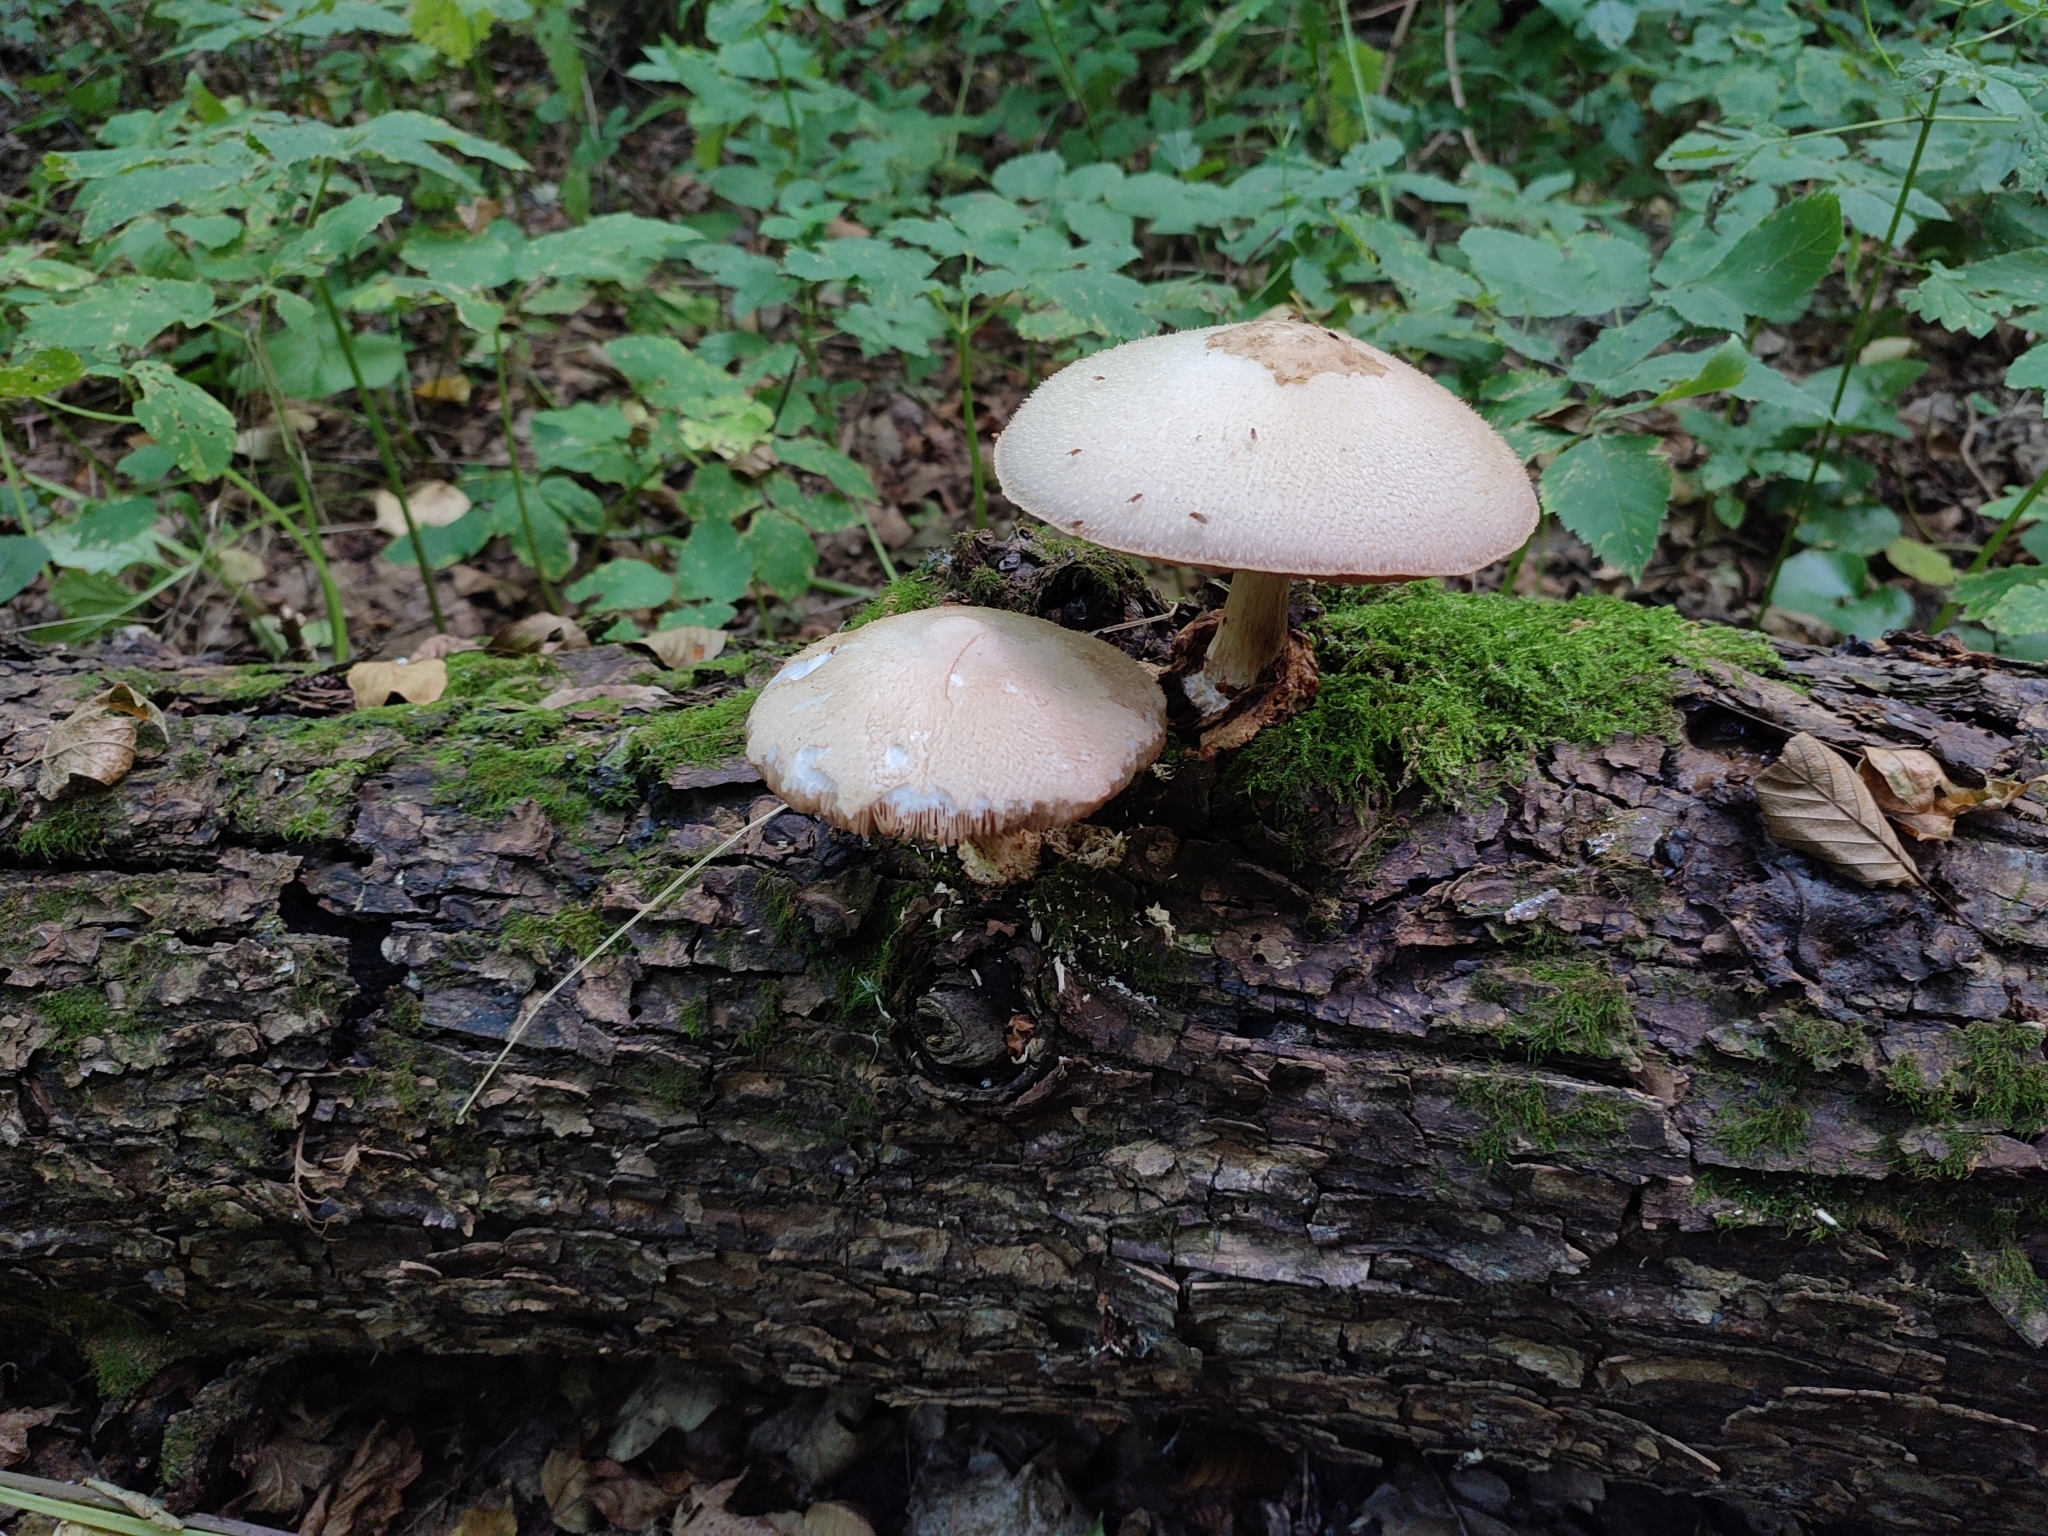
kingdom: Fungi
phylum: Basidiomycota
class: Agaricomycetes
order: Agaricales
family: Pluteaceae
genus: Volvariella
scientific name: Volvariella bombycina
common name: Silky rosegill
